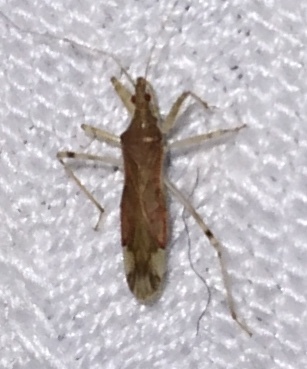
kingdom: Animalia
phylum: Arthropoda
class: Insecta
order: Hemiptera
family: Nabidae
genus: Lasiomerus
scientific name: Lasiomerus annulatus
